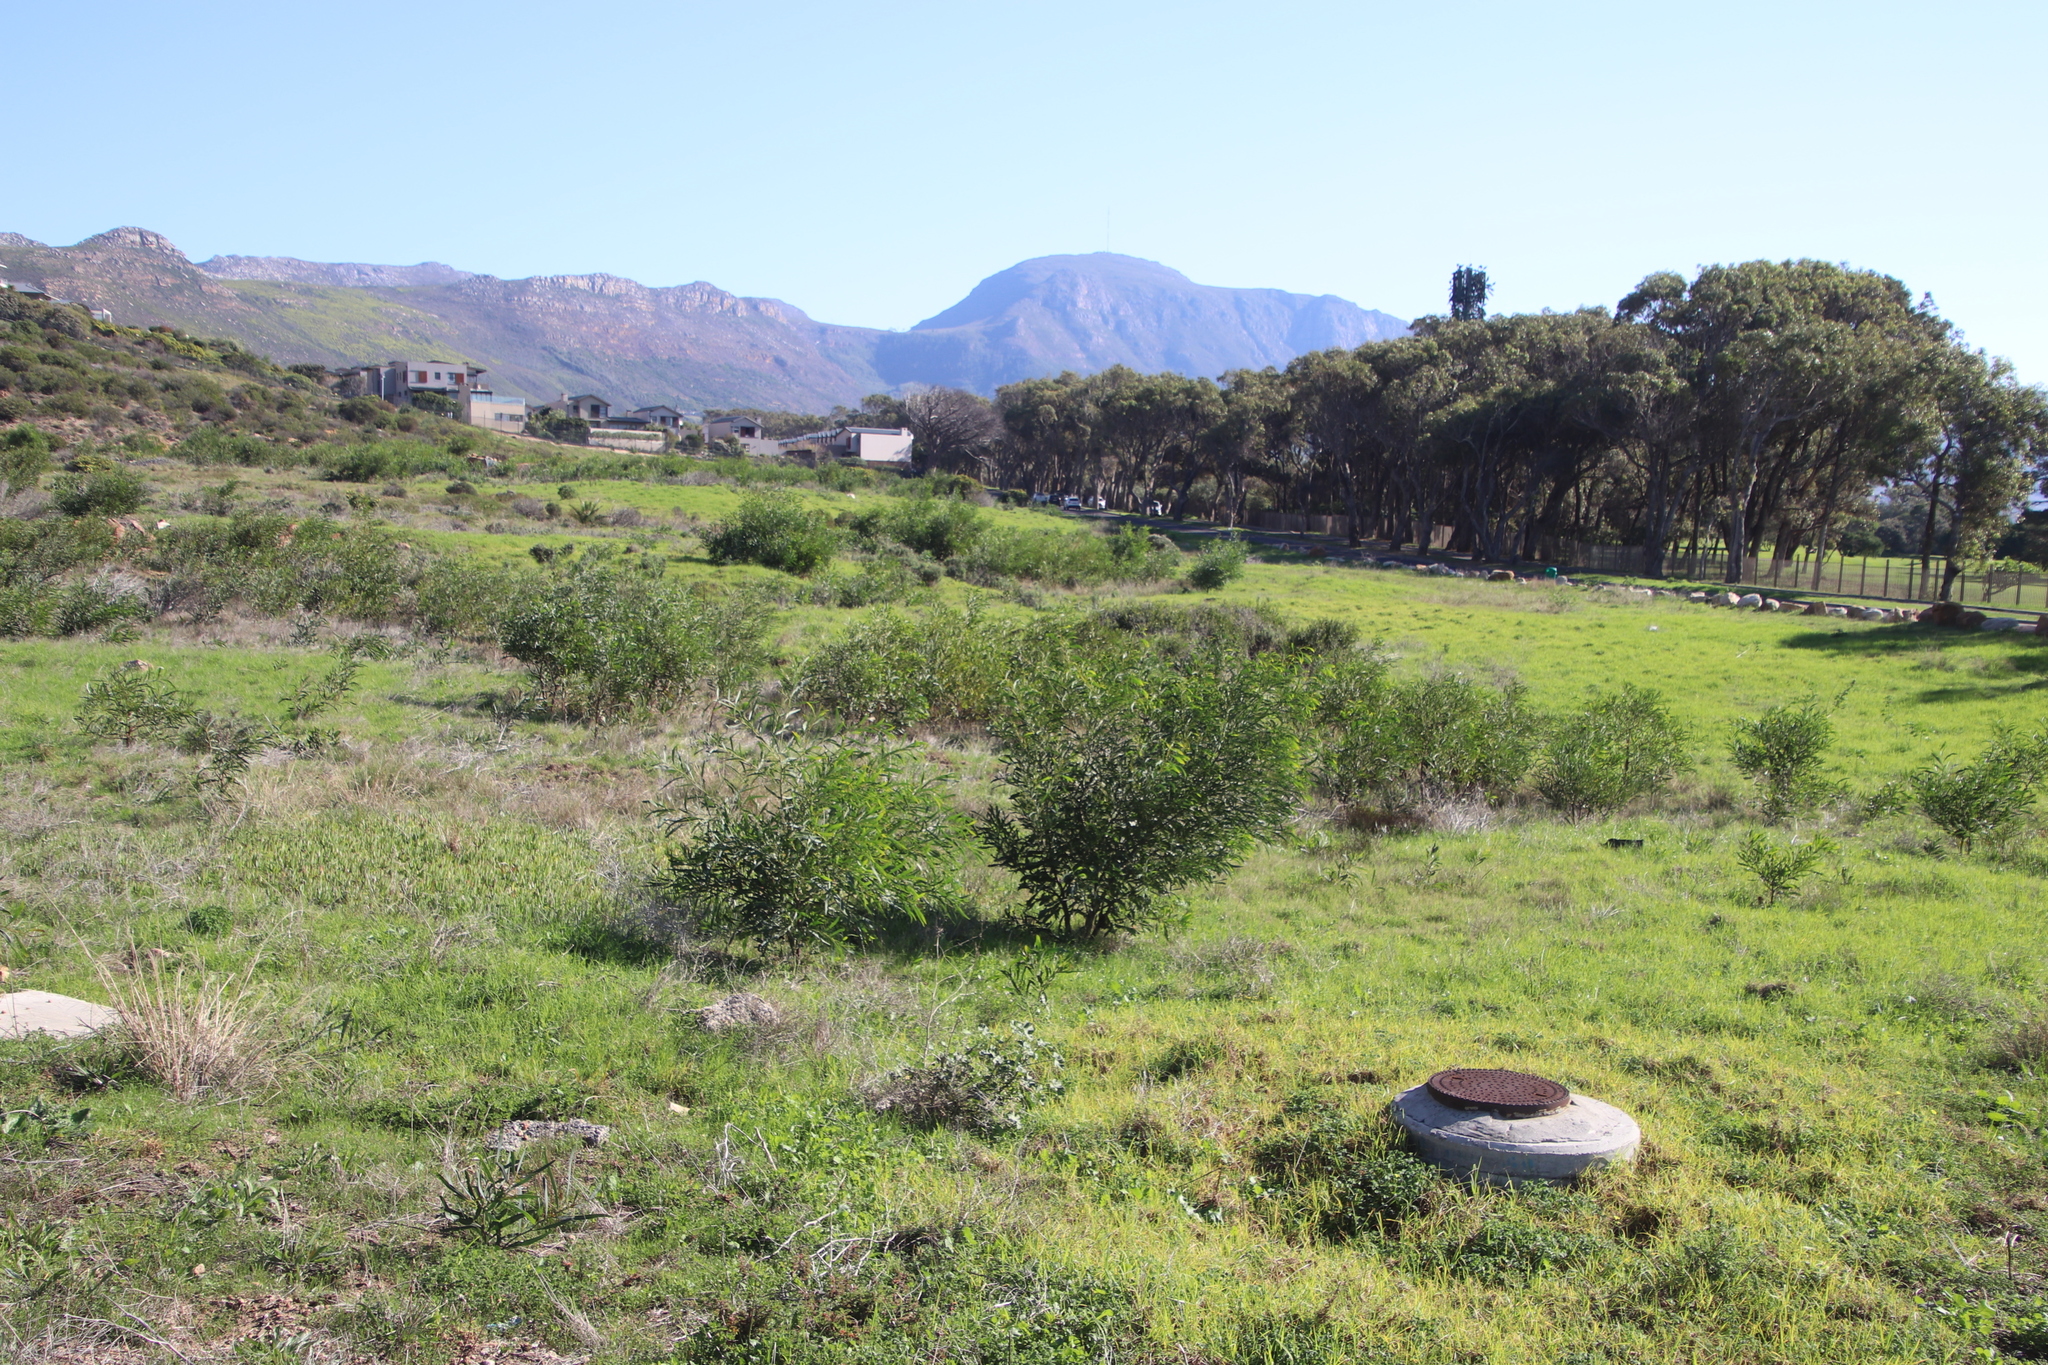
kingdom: Plantae
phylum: Tracheophyta
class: Magnoliopsida
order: Fabales
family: Fabaceae
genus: Acacia
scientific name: Acacia saligna
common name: Orange wattle
